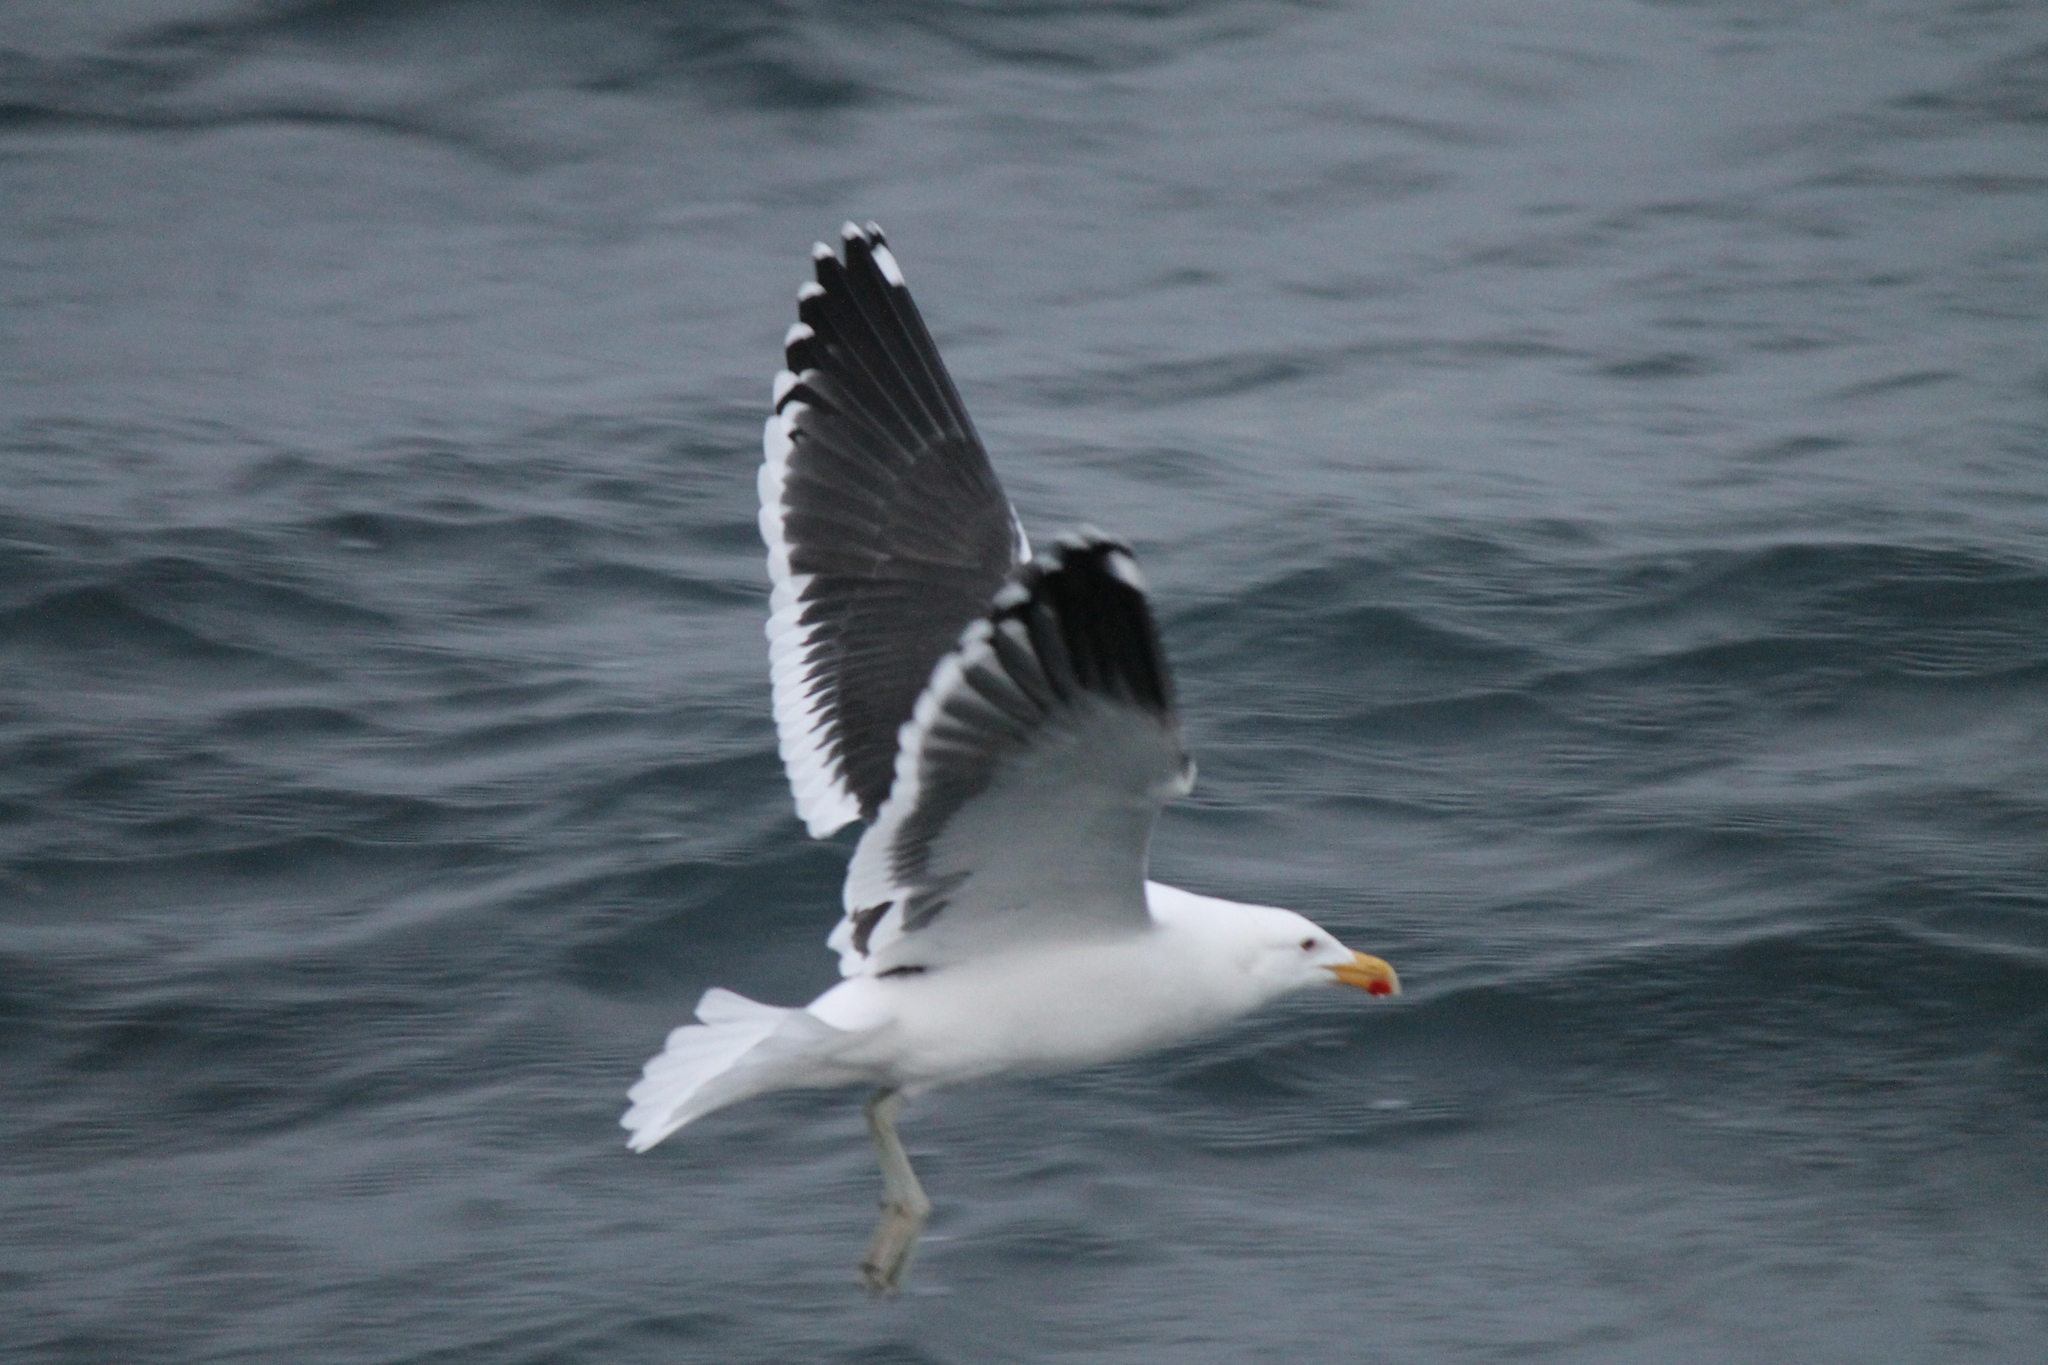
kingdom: Animalia
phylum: Chordata
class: Aves
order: Charadriiformes
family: Laridae
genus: Larus
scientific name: Larus dominicanus
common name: Kelp gull
